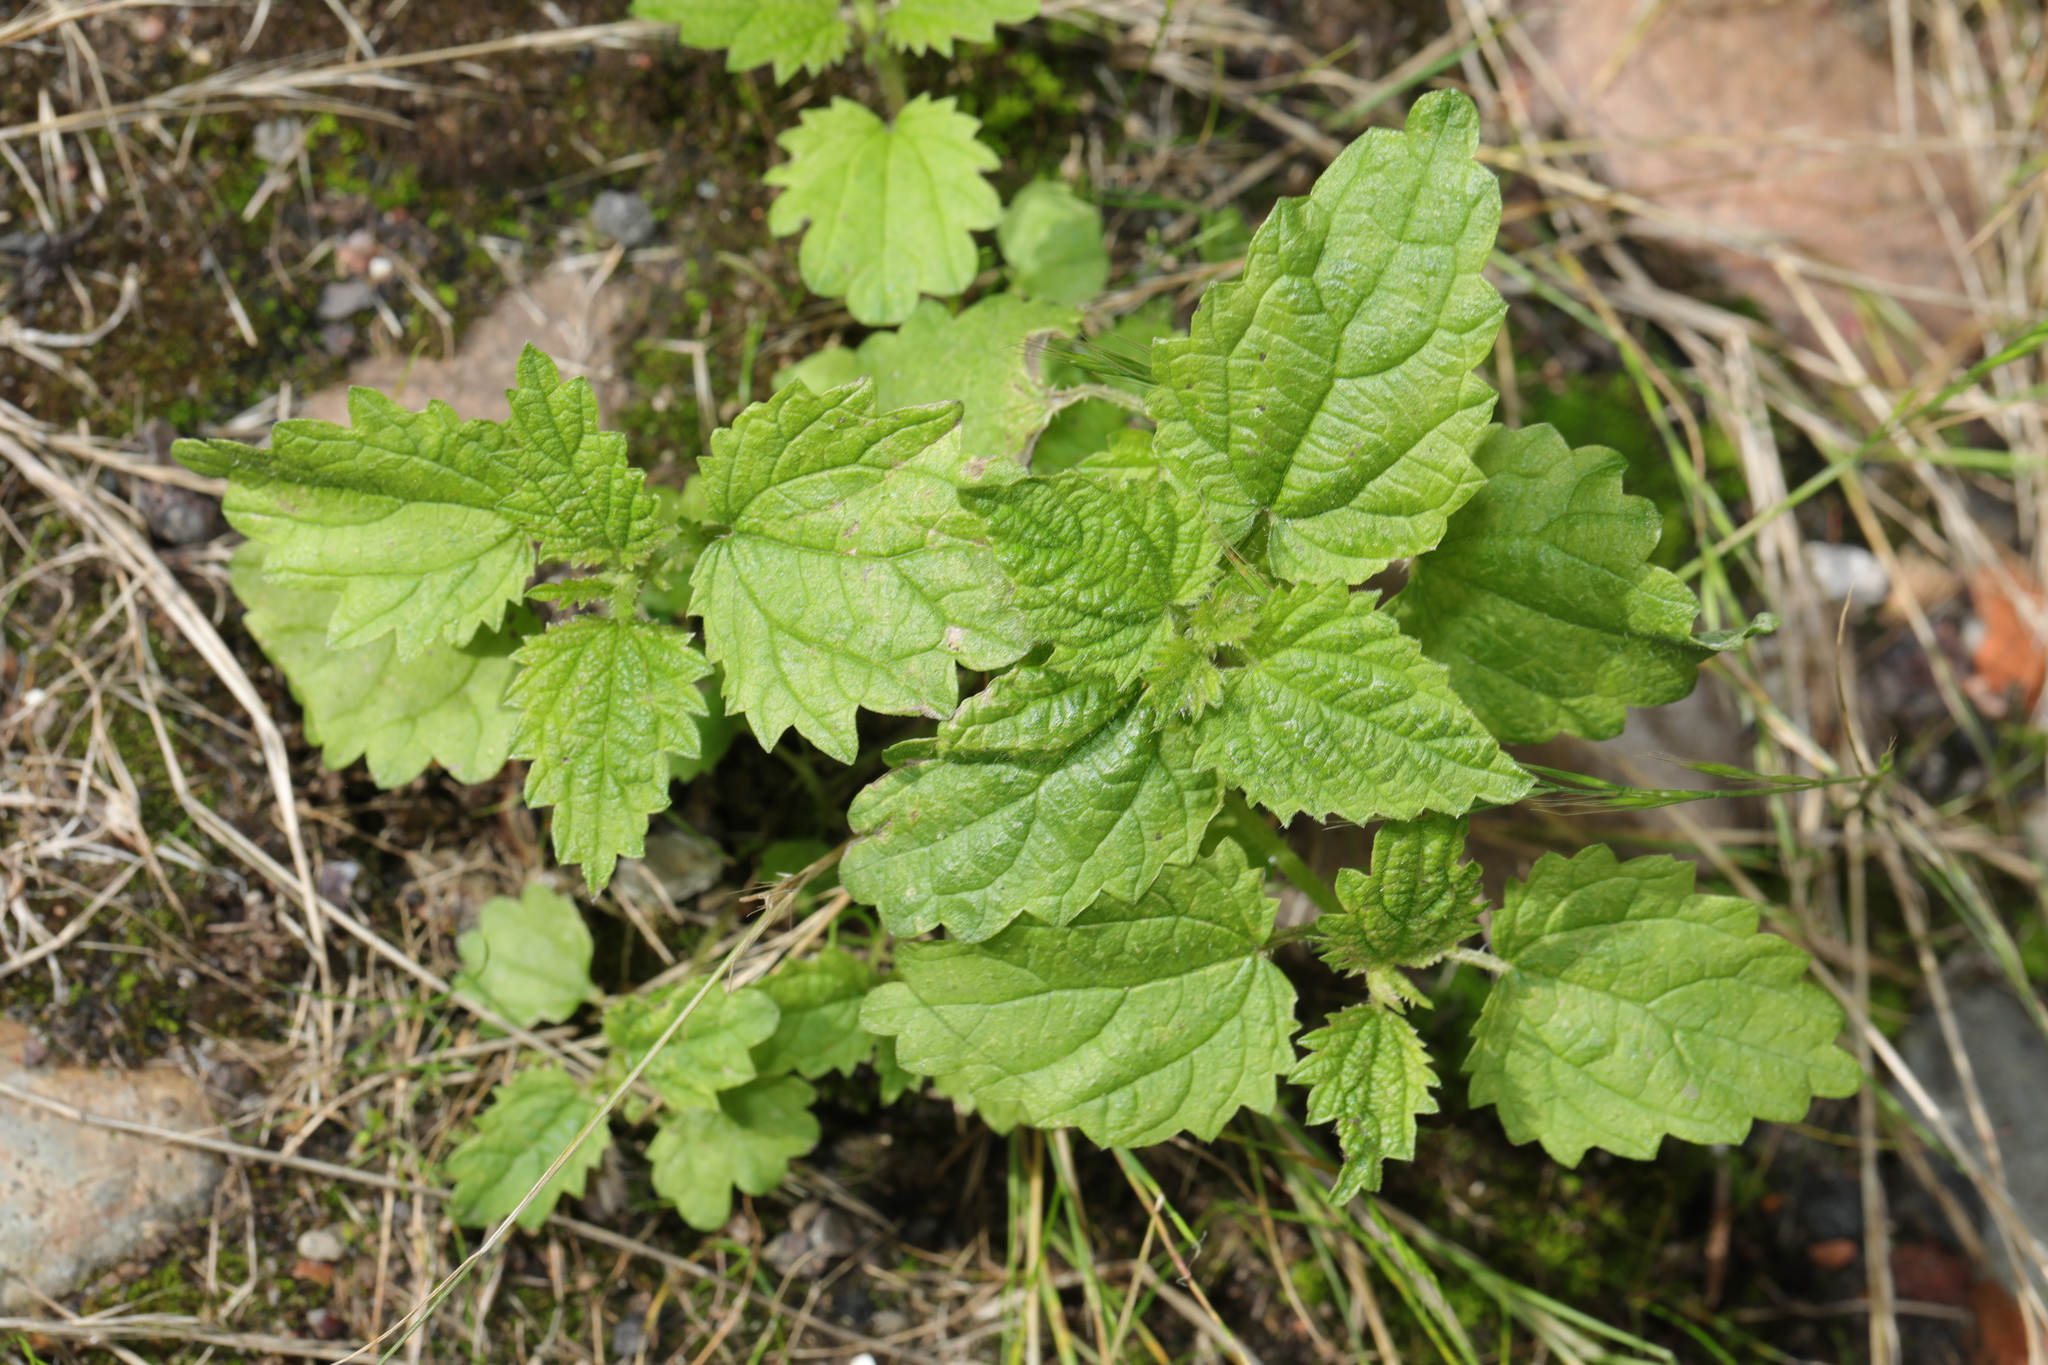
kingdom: Plantae
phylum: Tracheophyta
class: Magnoliopsida
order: Rosales
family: Urticaceae
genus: Urtica
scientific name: Urtica dioica
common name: Common nettle
